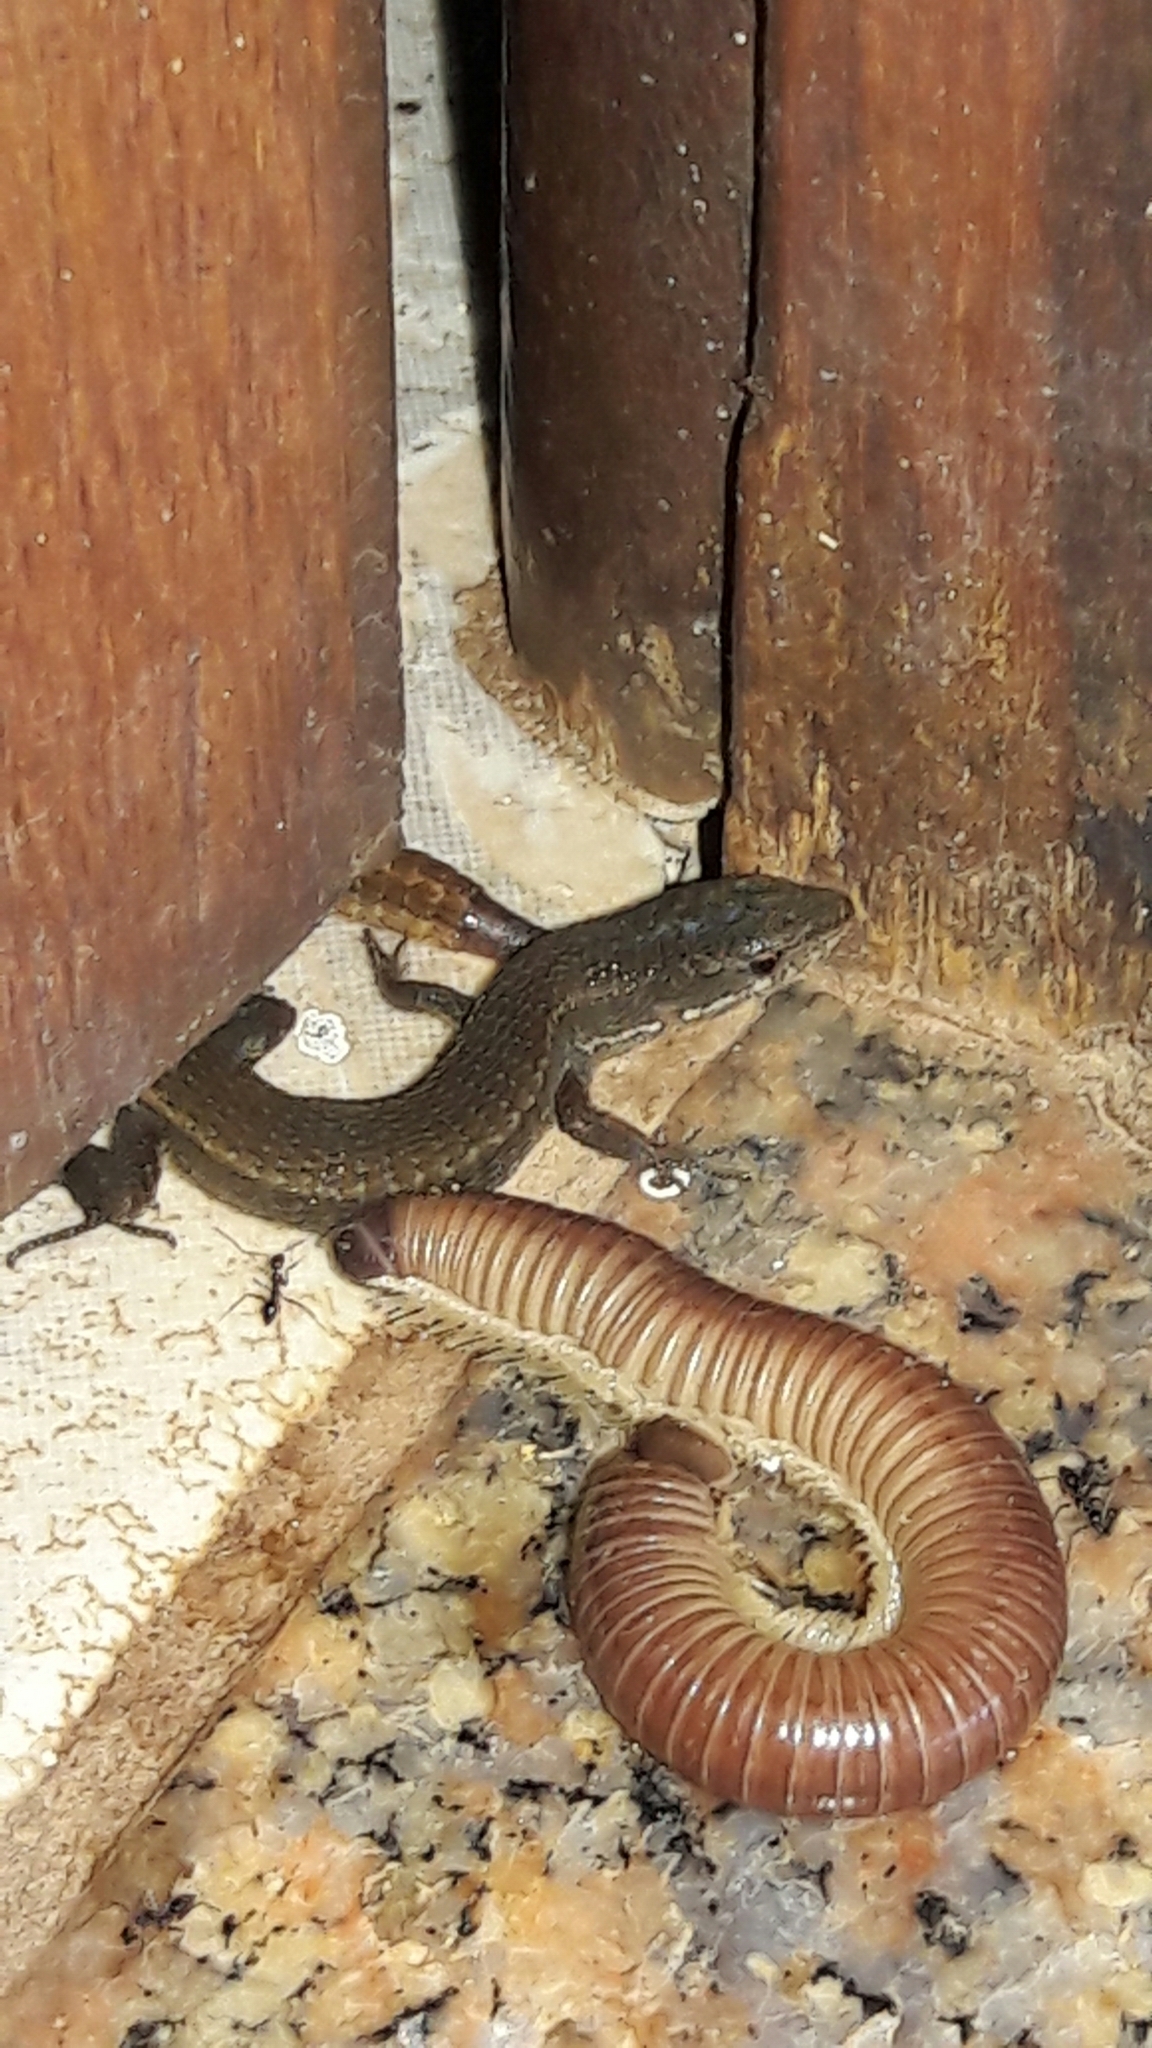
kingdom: Animalia
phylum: Chordata
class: Squamata
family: Gymnophthalmidae
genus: Cercosaura
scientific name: Cercosaura schreibersii
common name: Schreibers' many-fingered teiid
